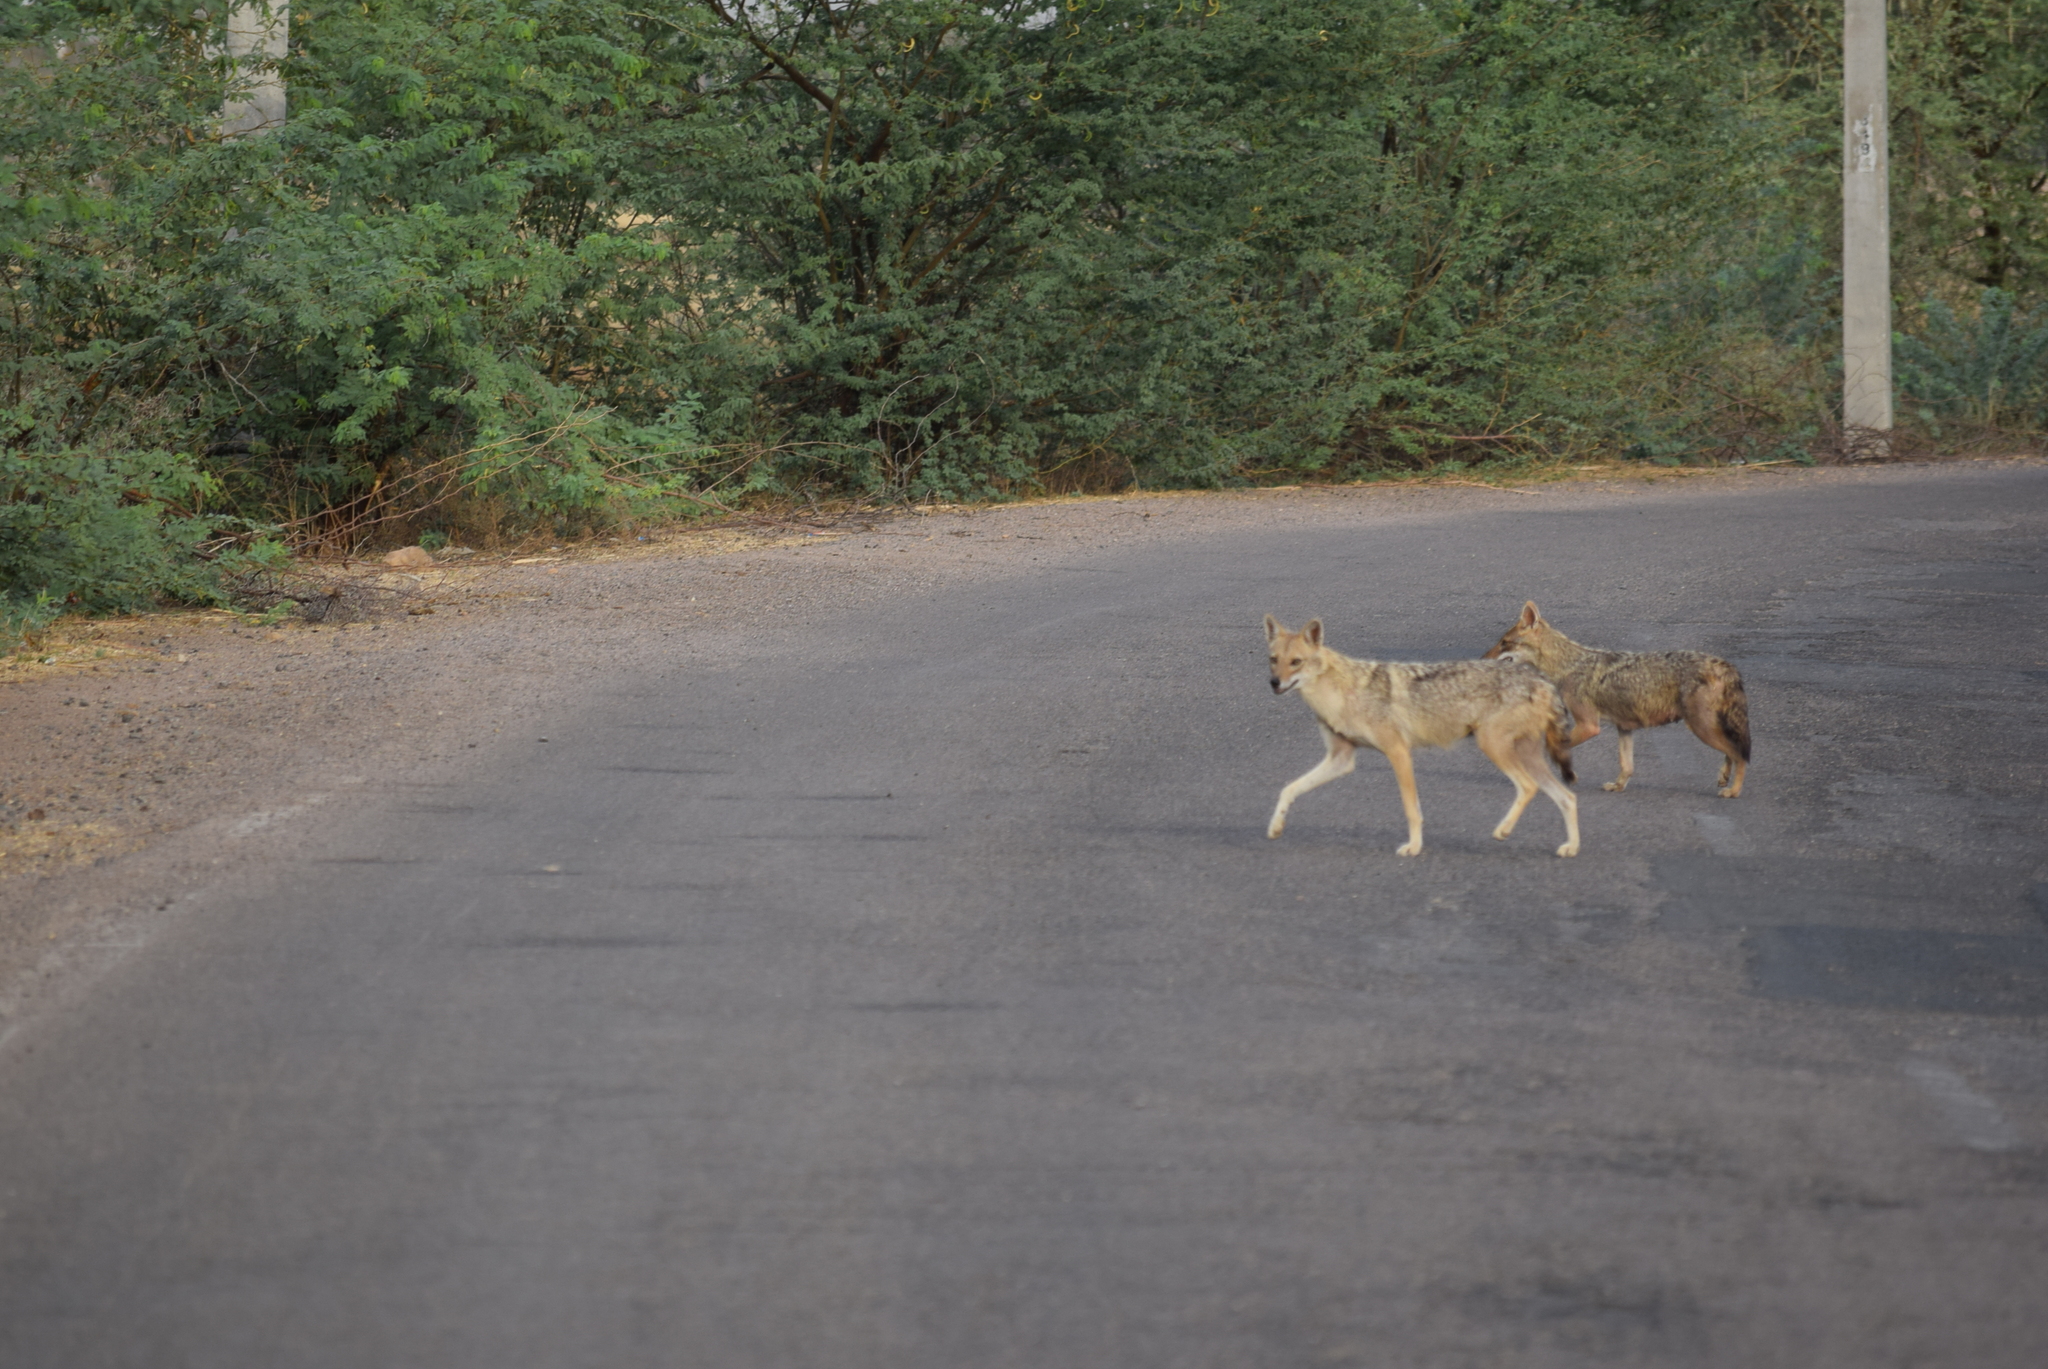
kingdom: Animalia
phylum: Chordata
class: Mammalia
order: Carnivora
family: Canidae
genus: Canis
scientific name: Canis aureus
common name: Golden jackal
